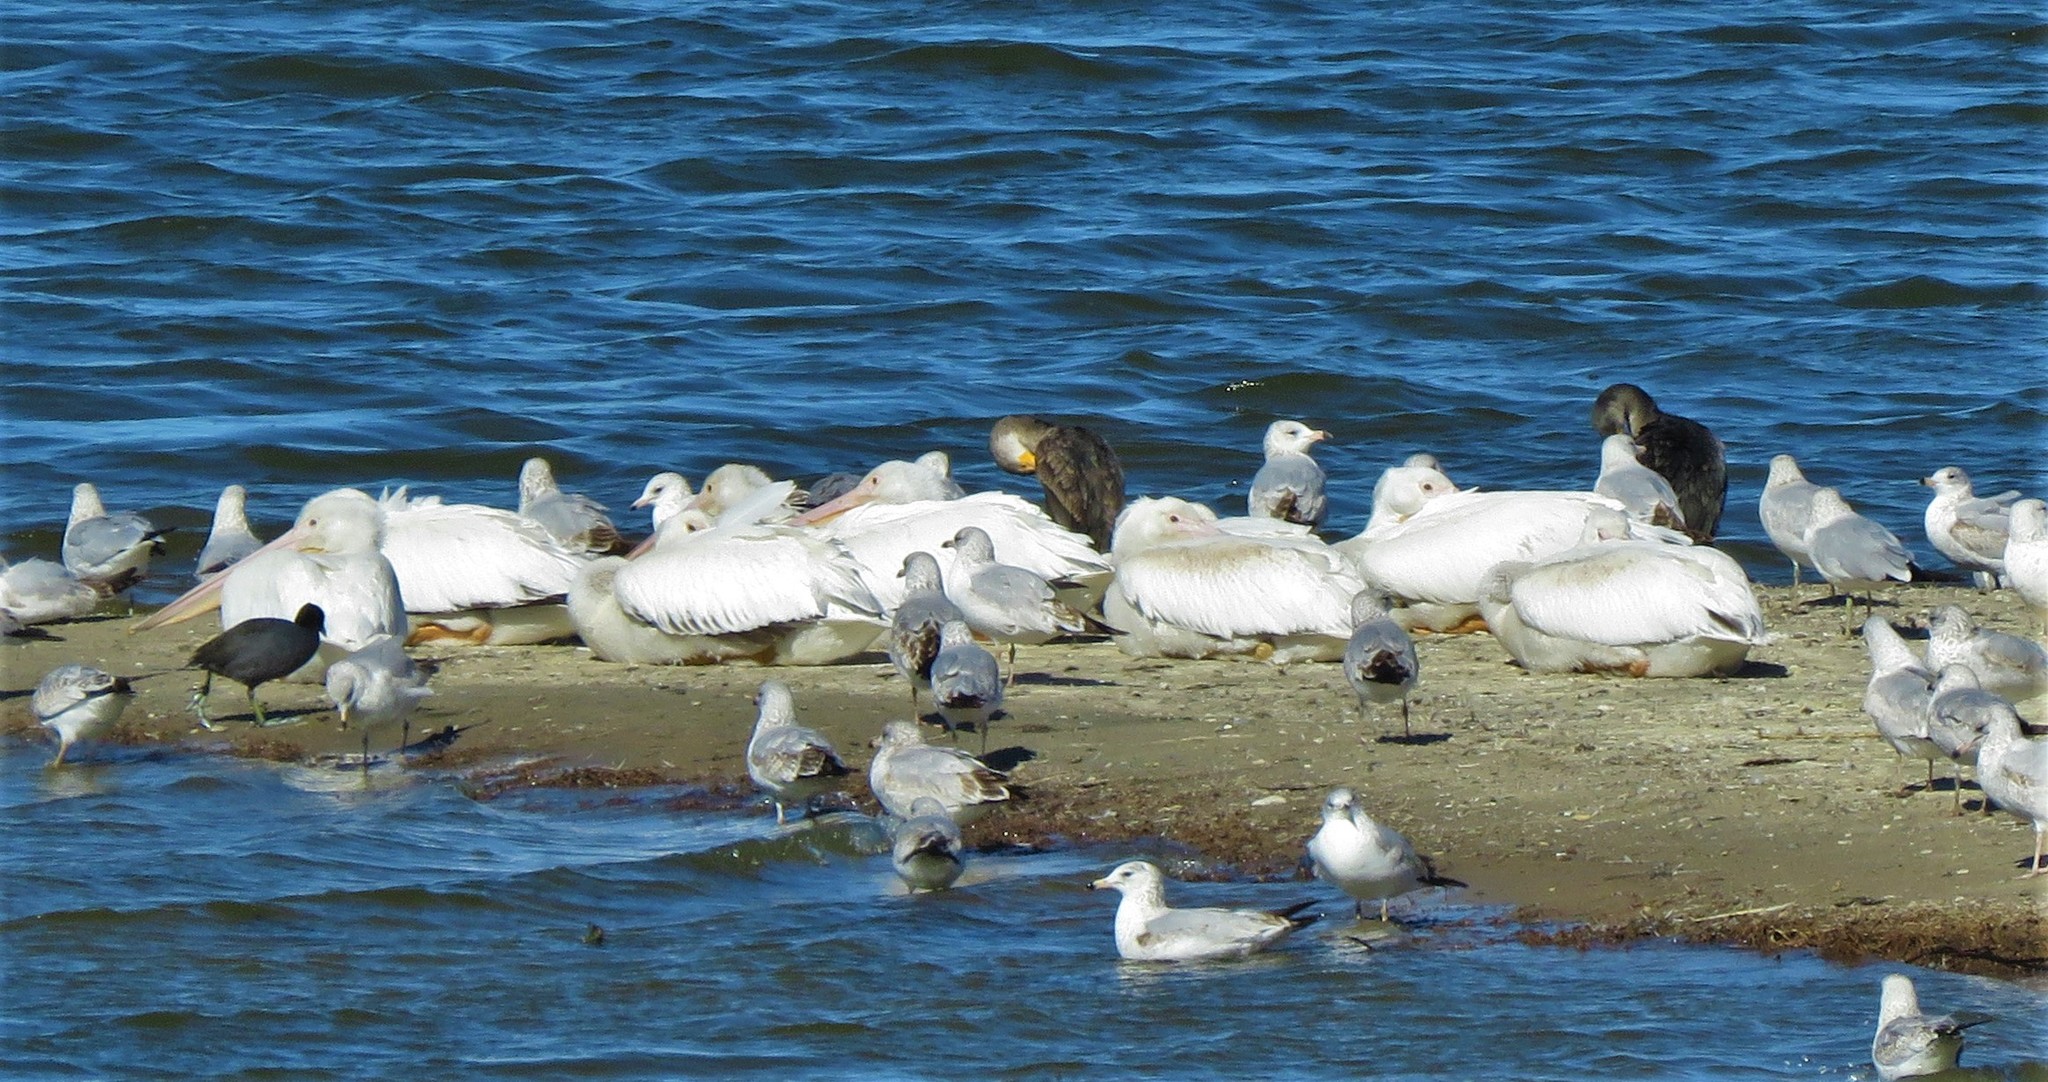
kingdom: Animalia
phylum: Chordata
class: Aves
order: Pelecaniformes
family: Pelecanidae
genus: Pelecanus
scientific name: Pelecanus erythrorhynchos
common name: American white pelican
